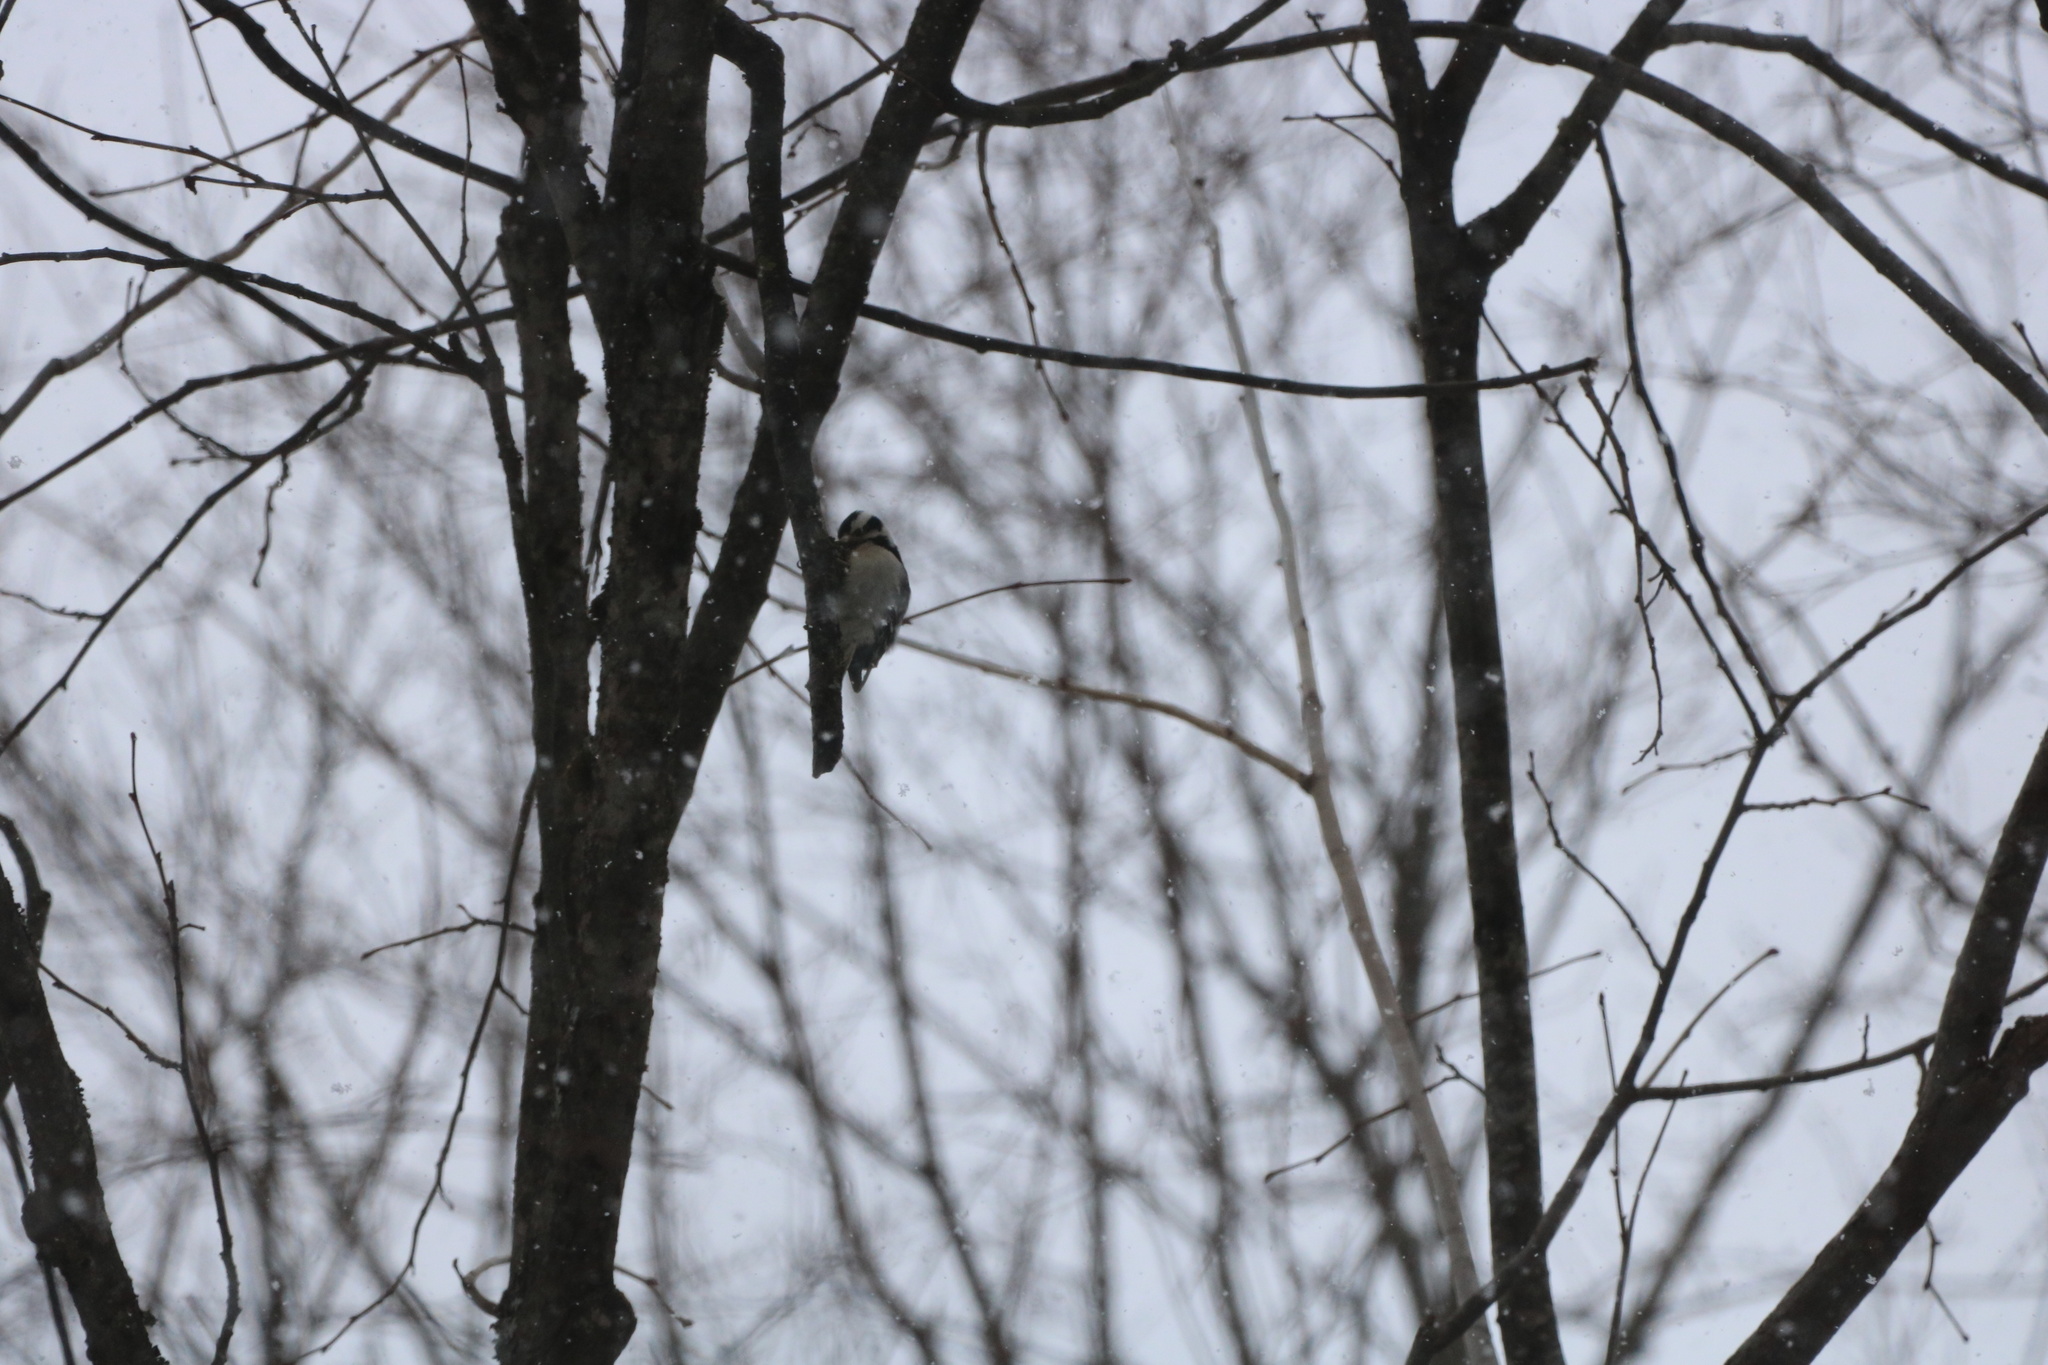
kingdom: Animalia
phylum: Chordata
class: Aves
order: Piciformes
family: Picidae
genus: Dryobates
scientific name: Dryobates pubescens
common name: Downy woodpecker
